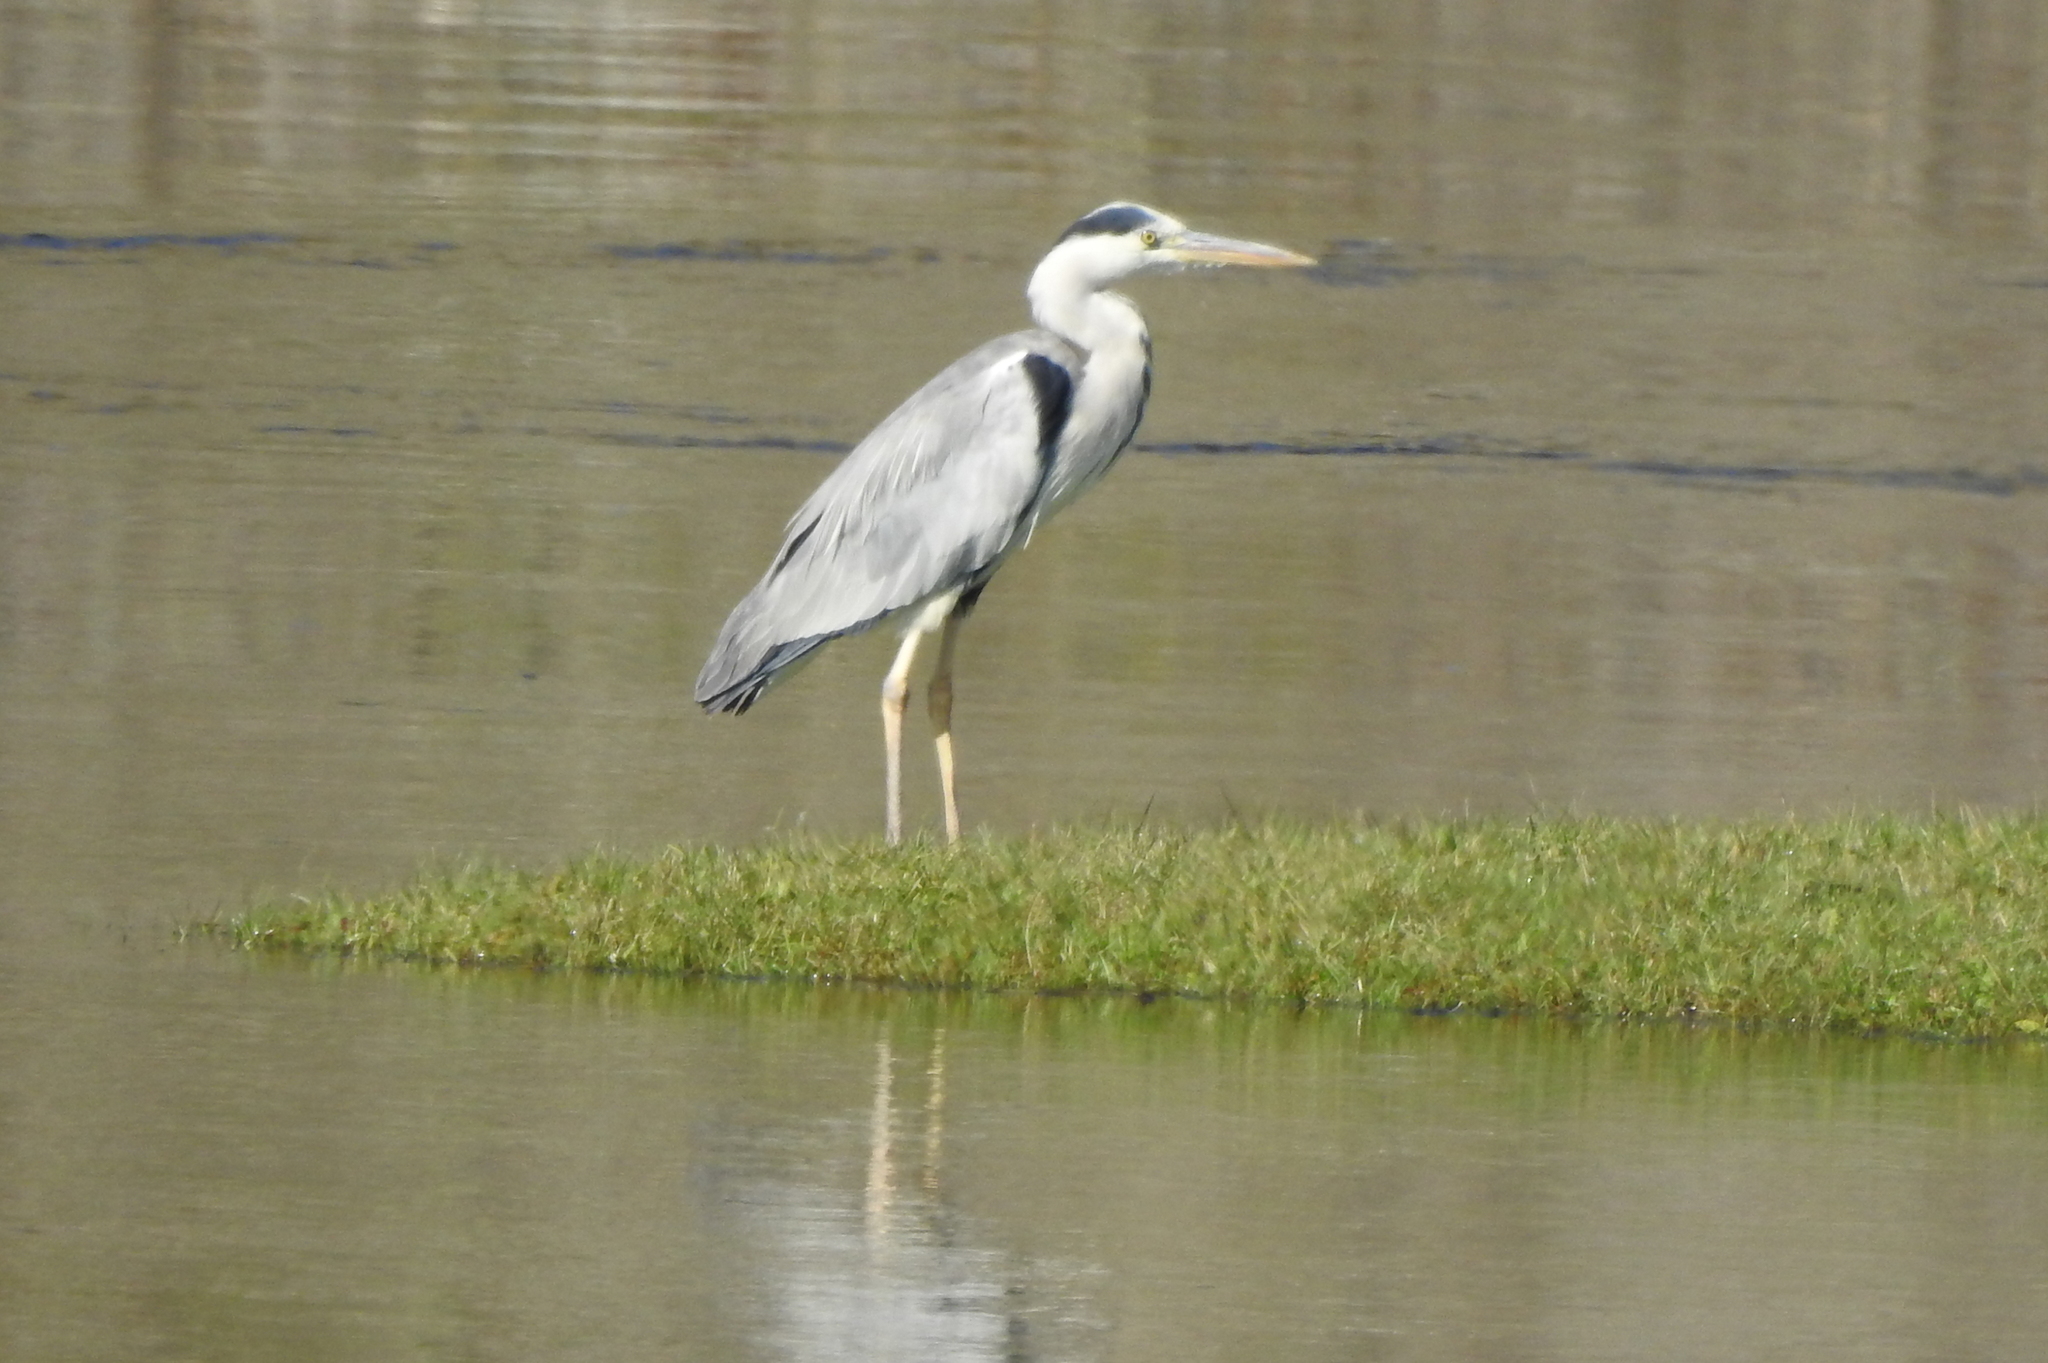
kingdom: Animalia
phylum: Chordata
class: Aves
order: Pelecaniformes
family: Ardeidae
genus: Ardea
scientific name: Ardea cinerea
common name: Grey heron
